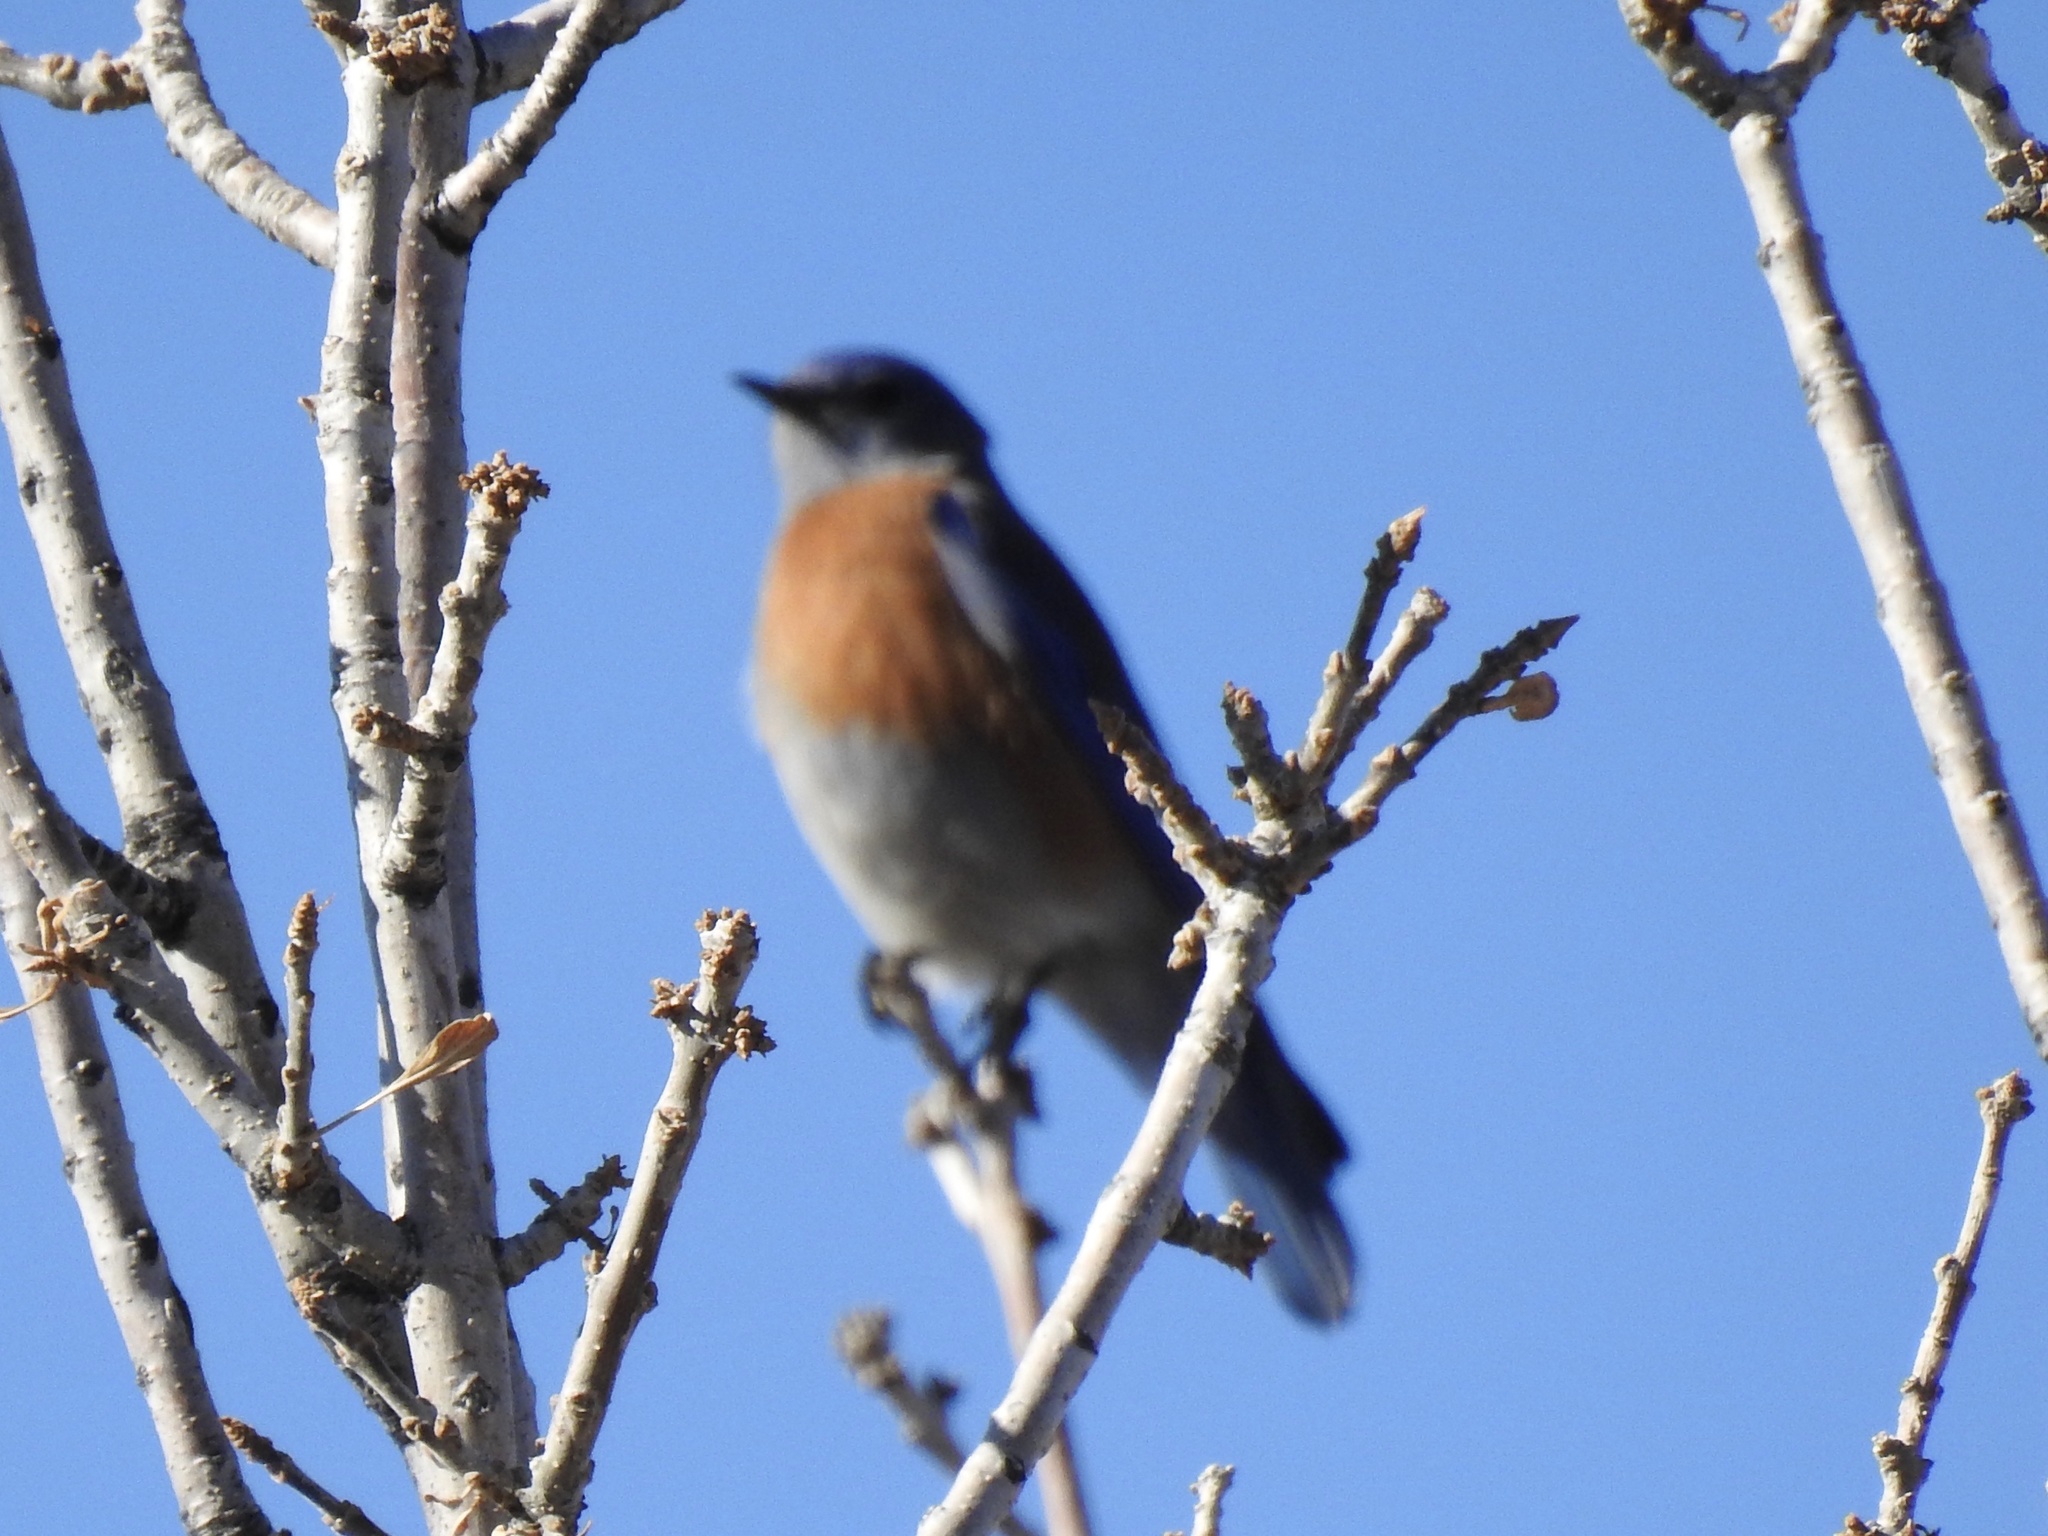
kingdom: Animalia
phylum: Chordata
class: Aves
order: Passeriformes
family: Turdidae
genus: Sialia
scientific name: Sialia mexicana
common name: Western bluebird
